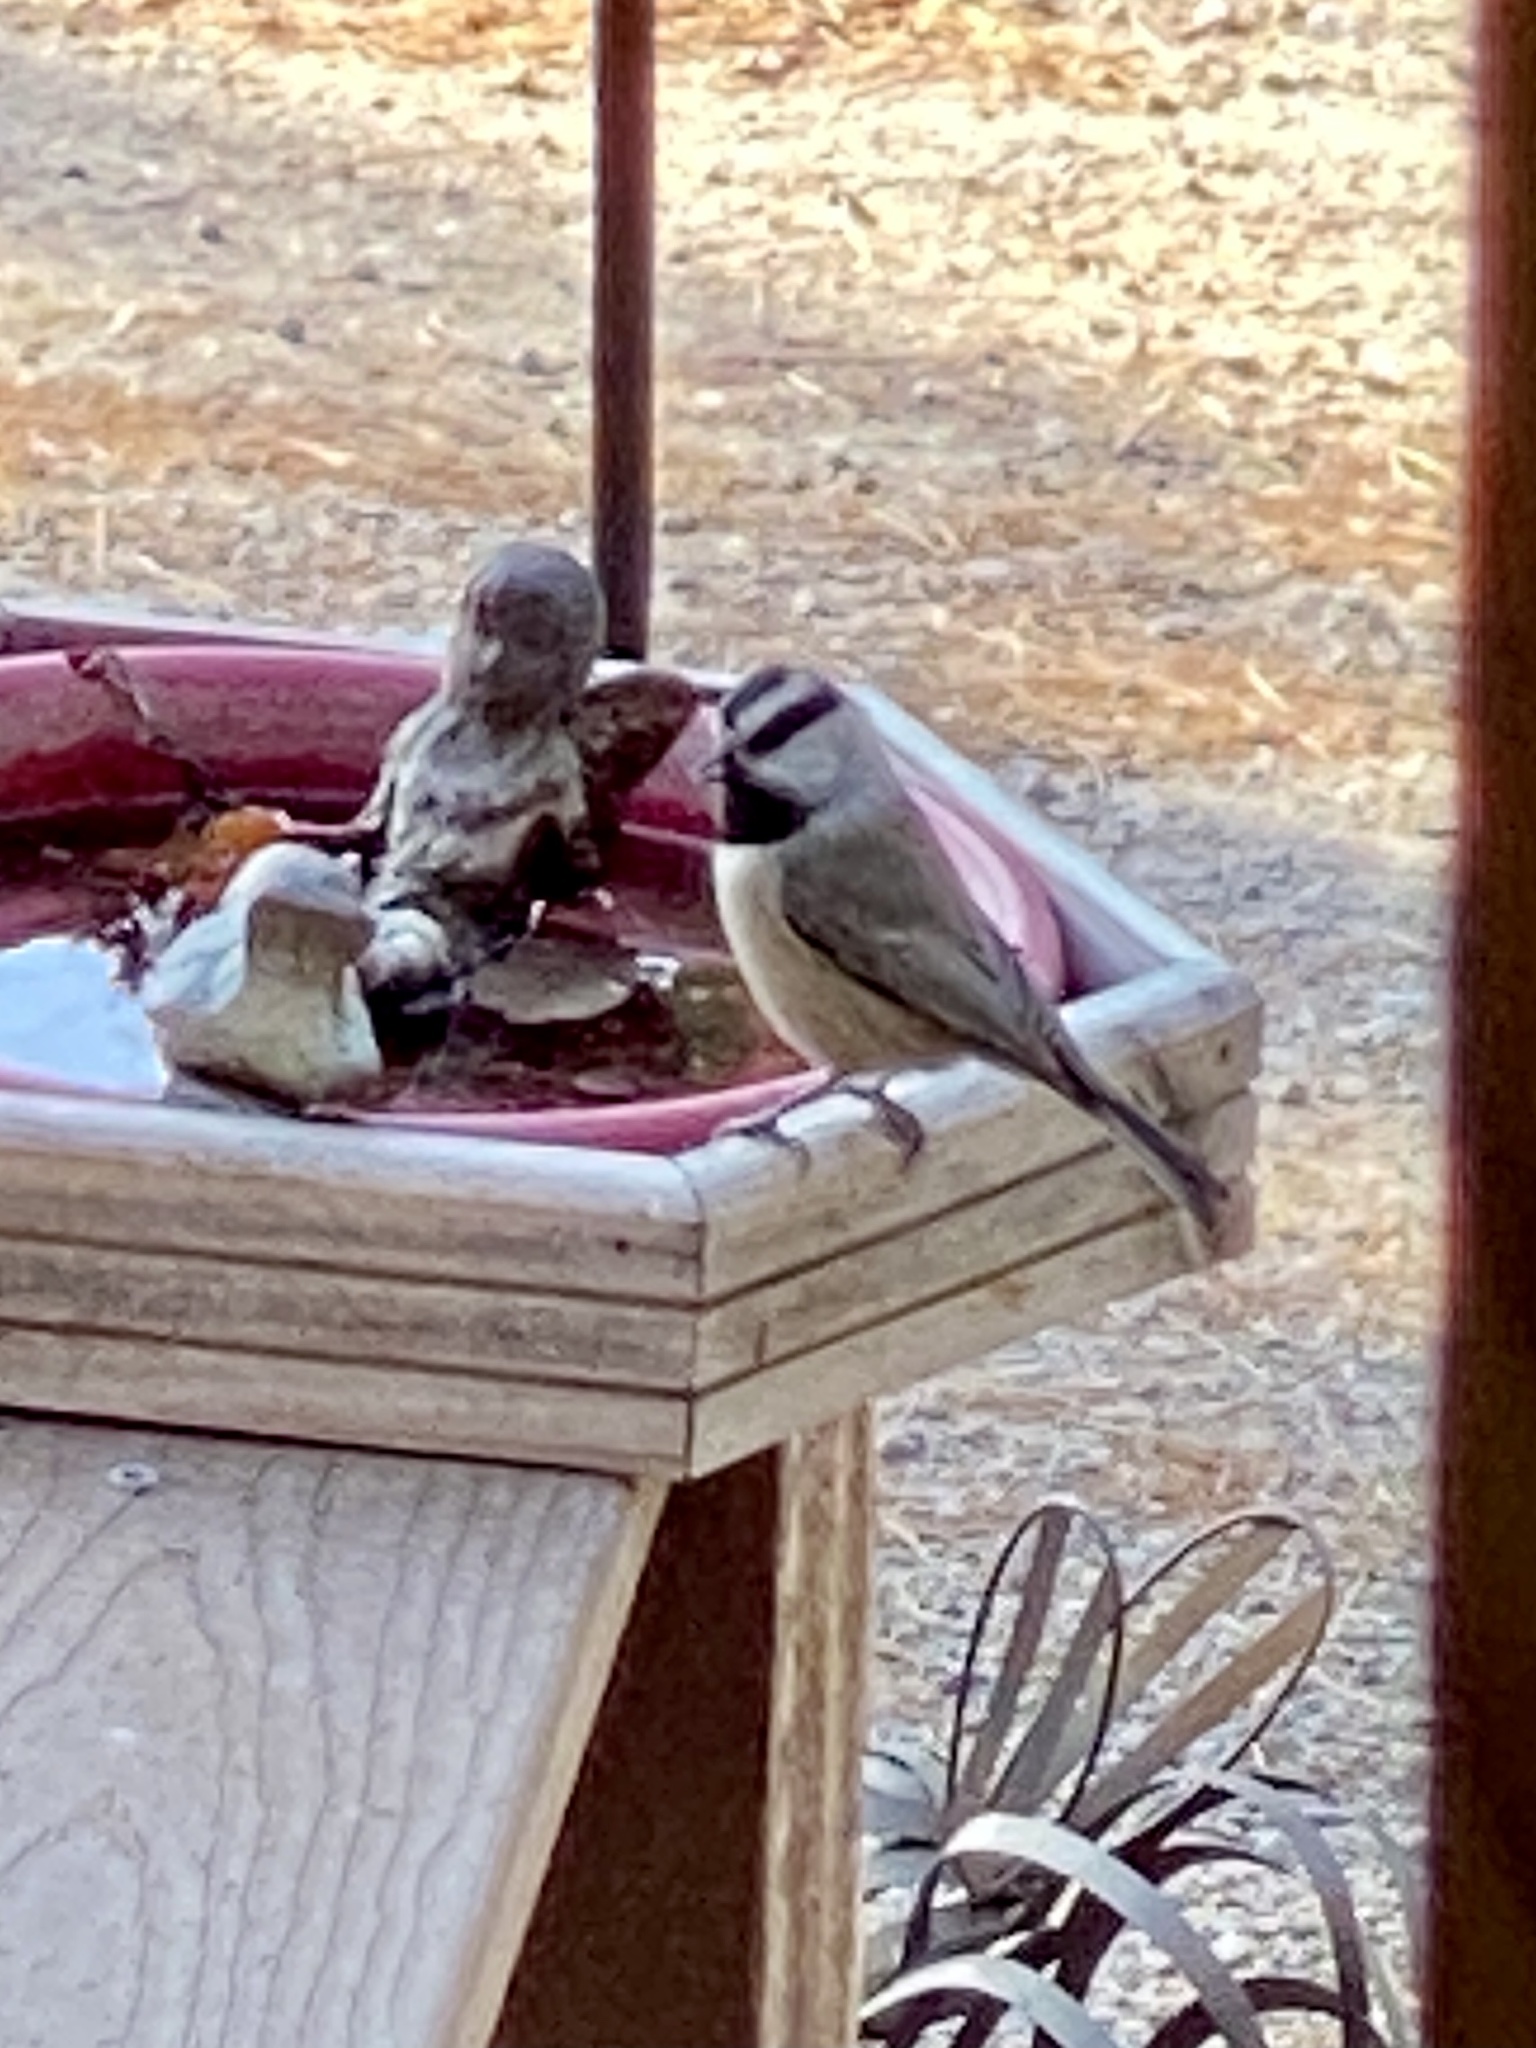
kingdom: Animalia
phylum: Chordata
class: Aves
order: Passeriformes
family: Paridae
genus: Poecile
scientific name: Poecile gambeli
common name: Mountain chickadee
